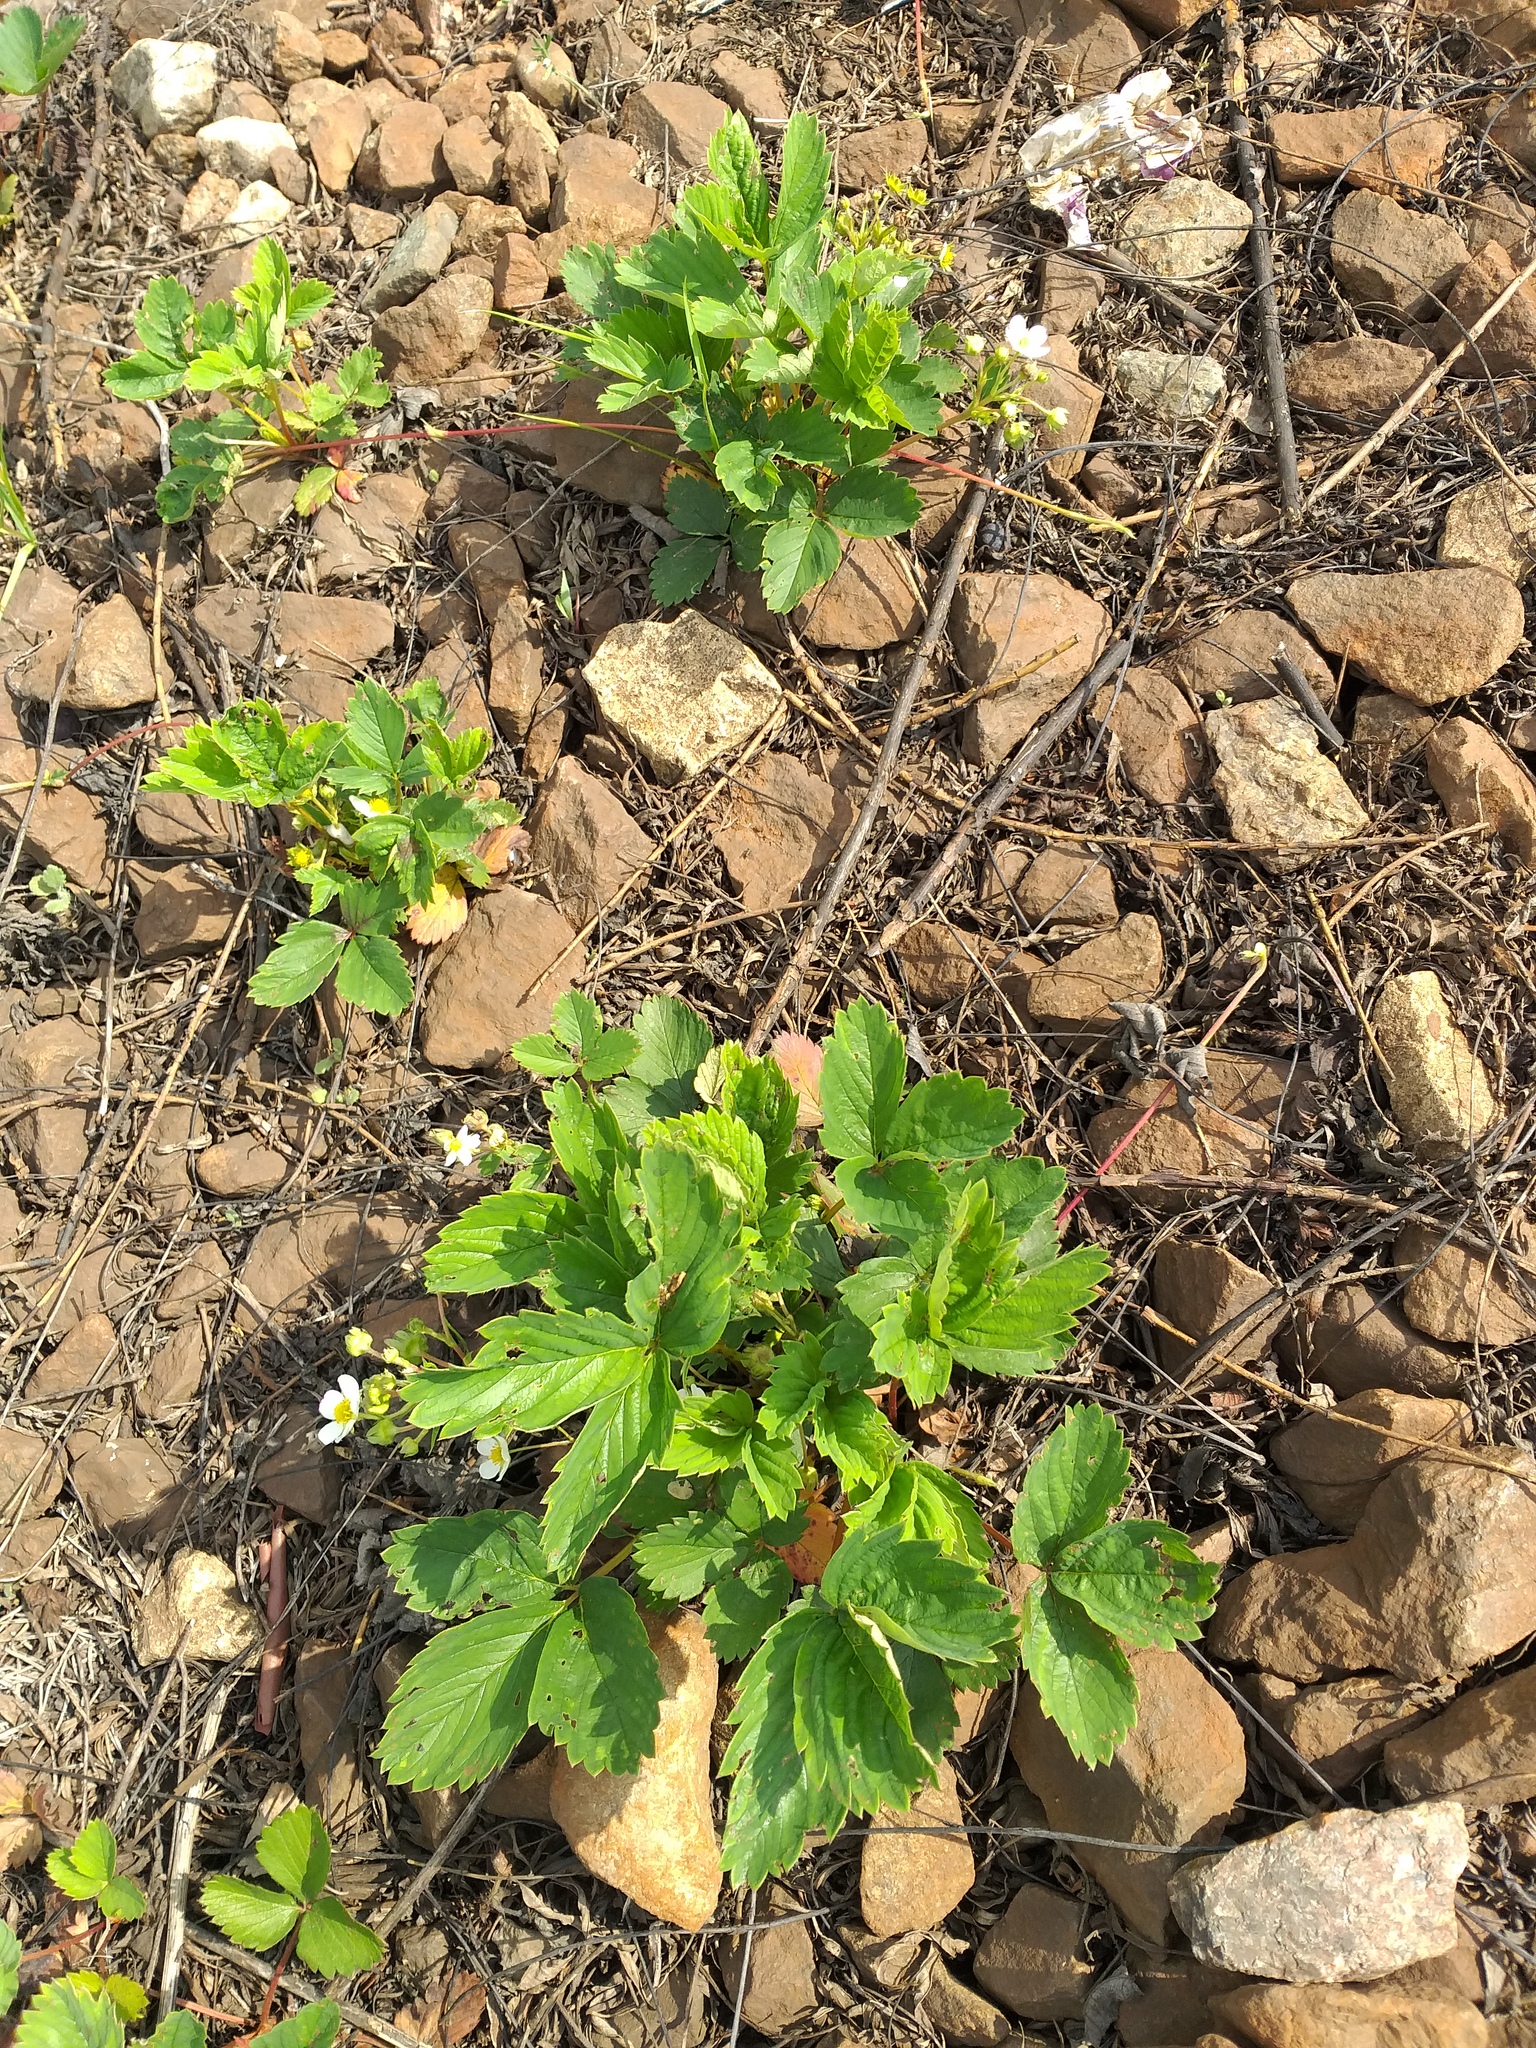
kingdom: Plantae
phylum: Tracheophyta
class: Magnoliopsida
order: Rosales
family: Rosaceae
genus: Fragaria
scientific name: Fragaria ananassa
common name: Garden strawberry
